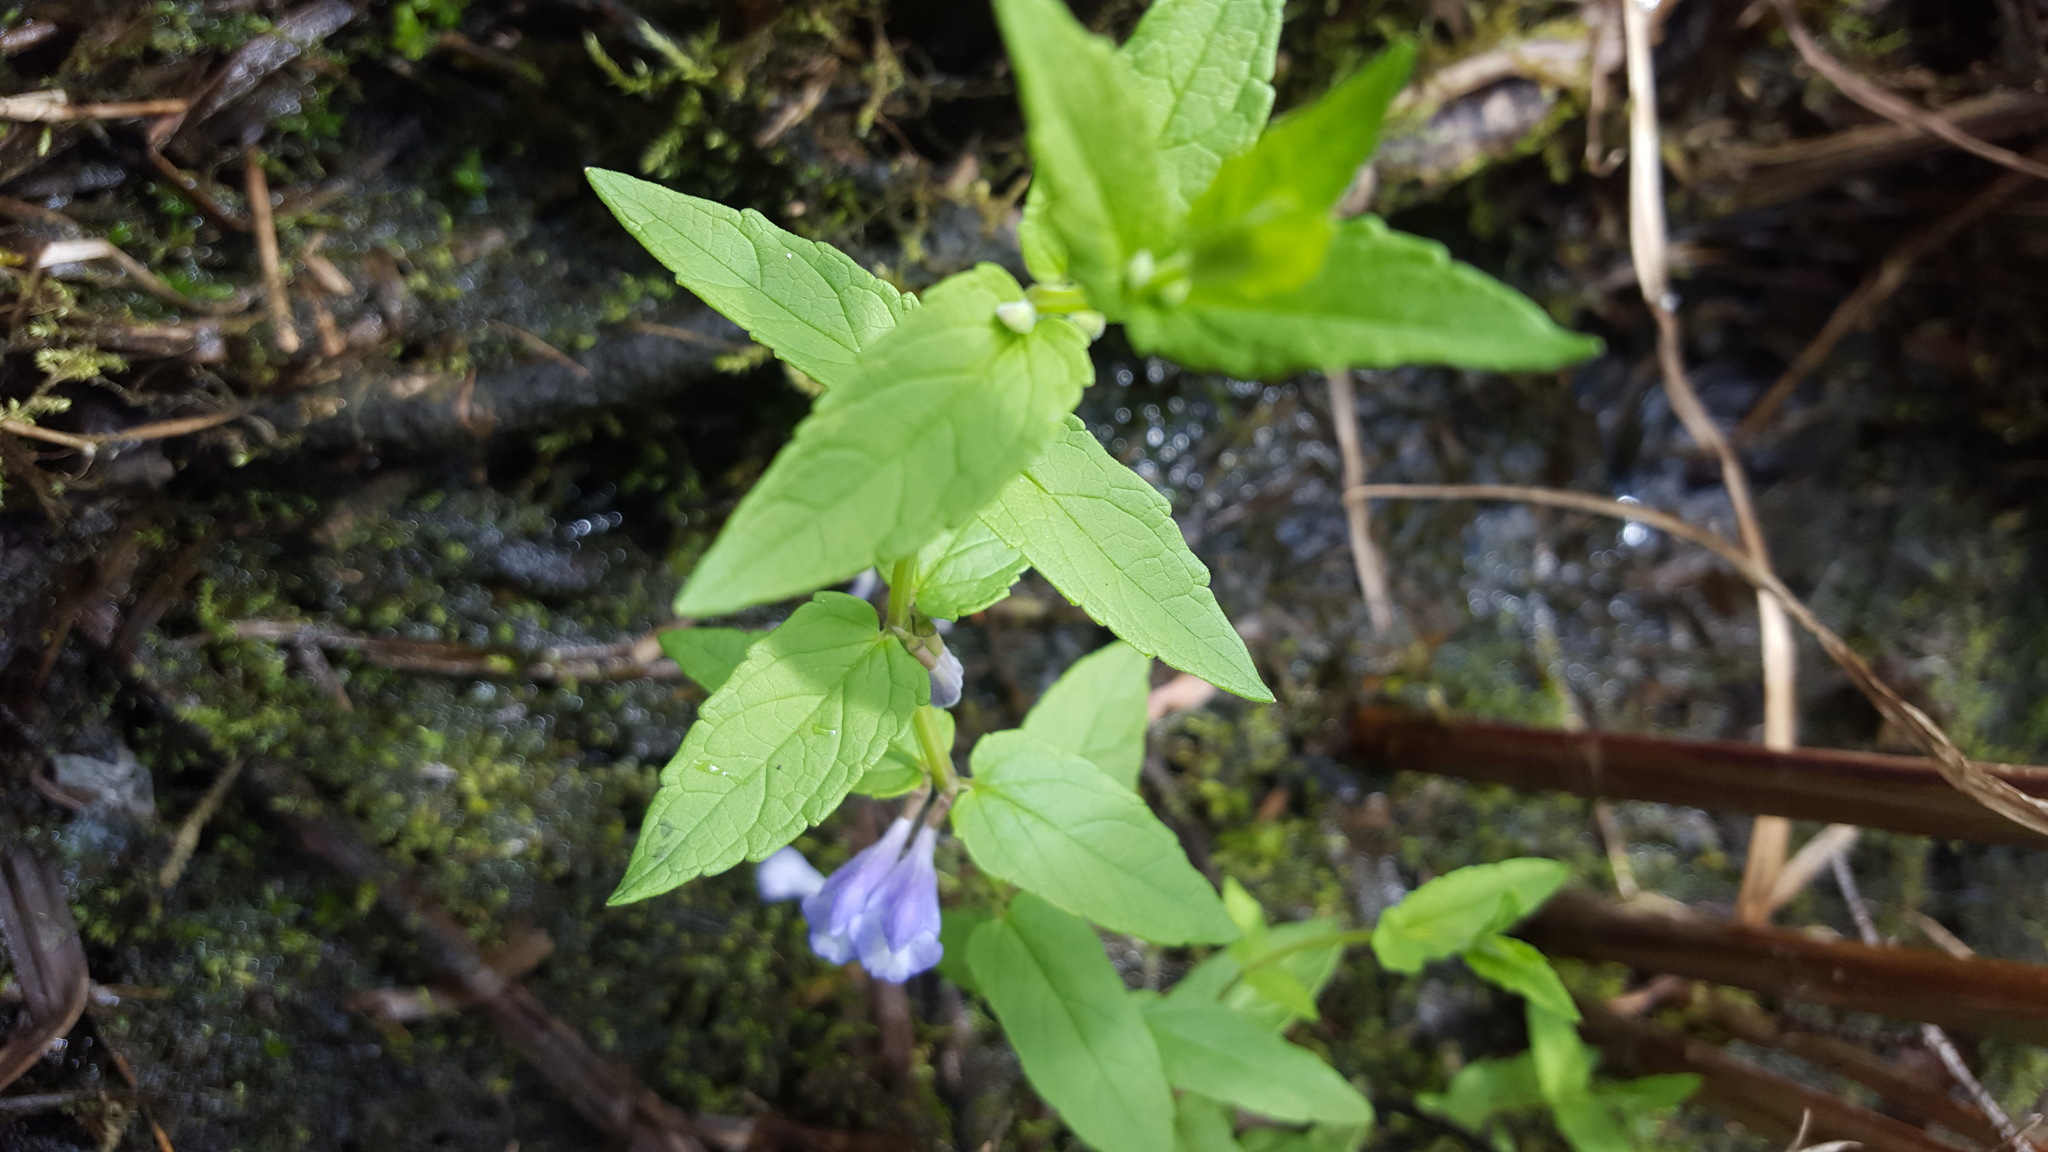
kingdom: Plantae
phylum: Tracheophyta
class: Magnoliopsida
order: Lamiales
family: Lamiaceae
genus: Scutellaria
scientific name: Scutellaria galericulata
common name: Skullcap
